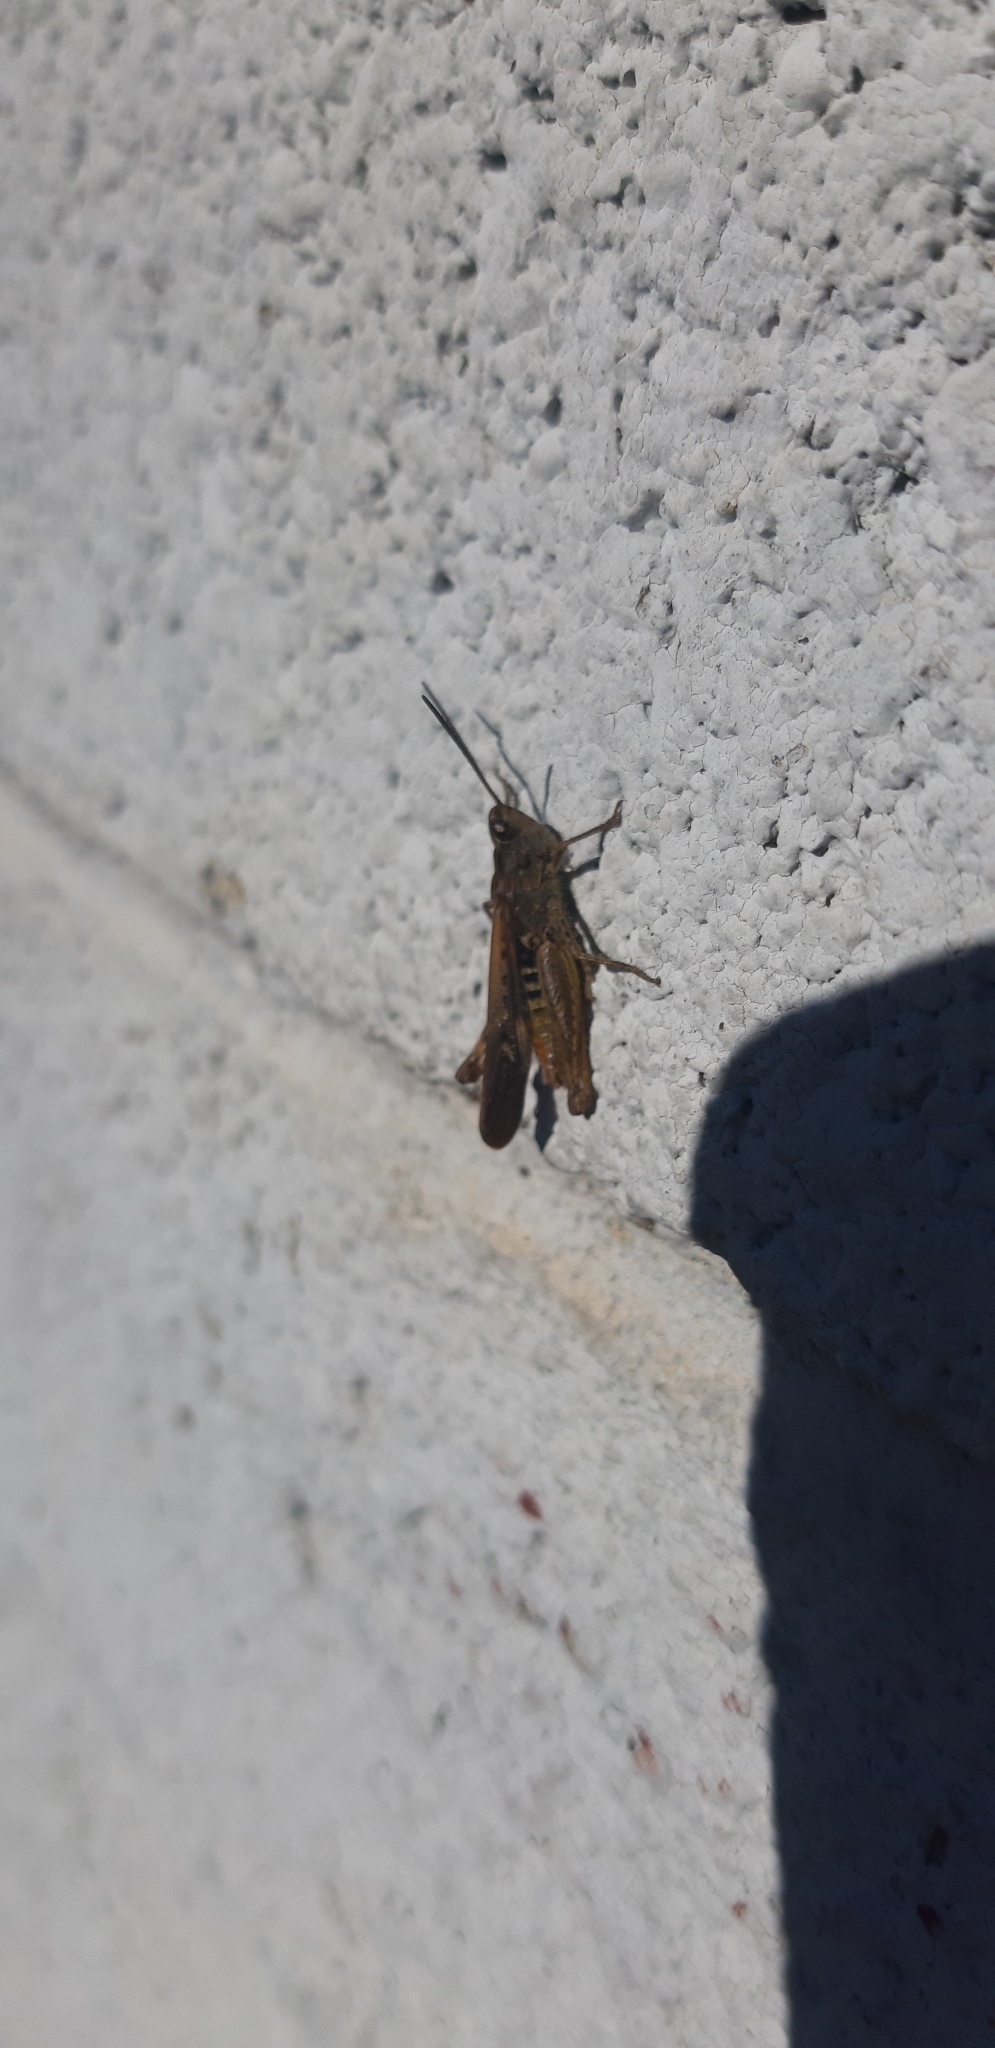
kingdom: Animalia
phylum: Arthropoda
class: Insecta
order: Orthoptera
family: Acrididae
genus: Chorthippus
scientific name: Chorthippus brunneus
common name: Field grasshopper
